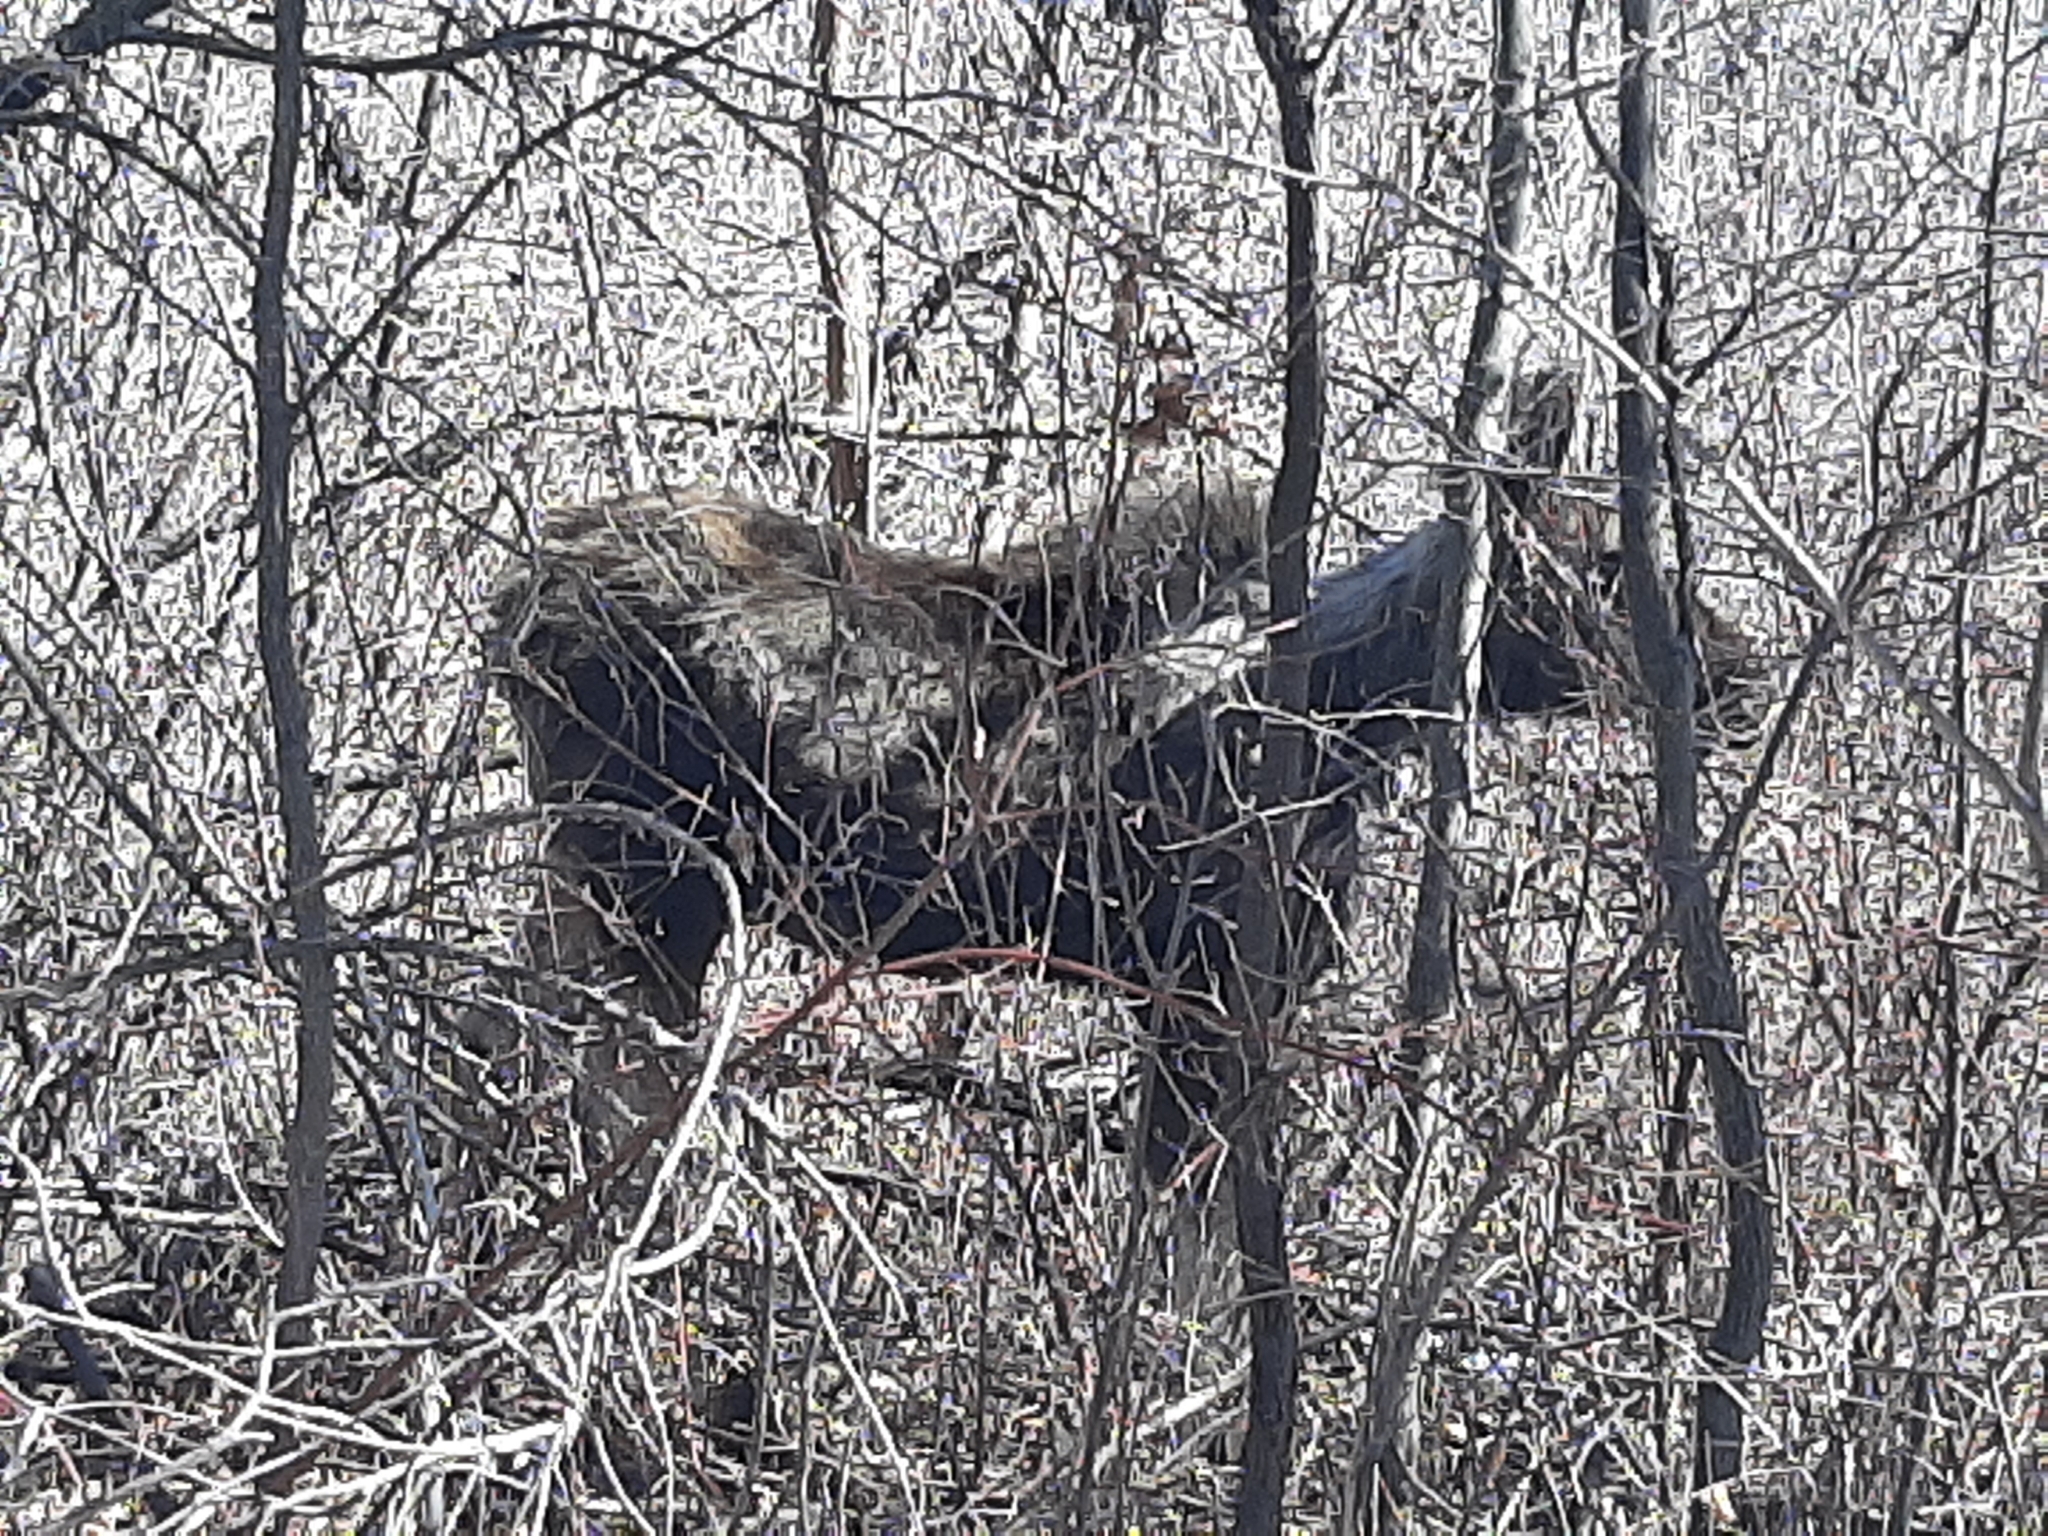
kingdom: Animalia
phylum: Chordata
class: Mammalia
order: Artiodactyla
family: Cervidae
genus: Alces
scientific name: Alces alces
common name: Moose
